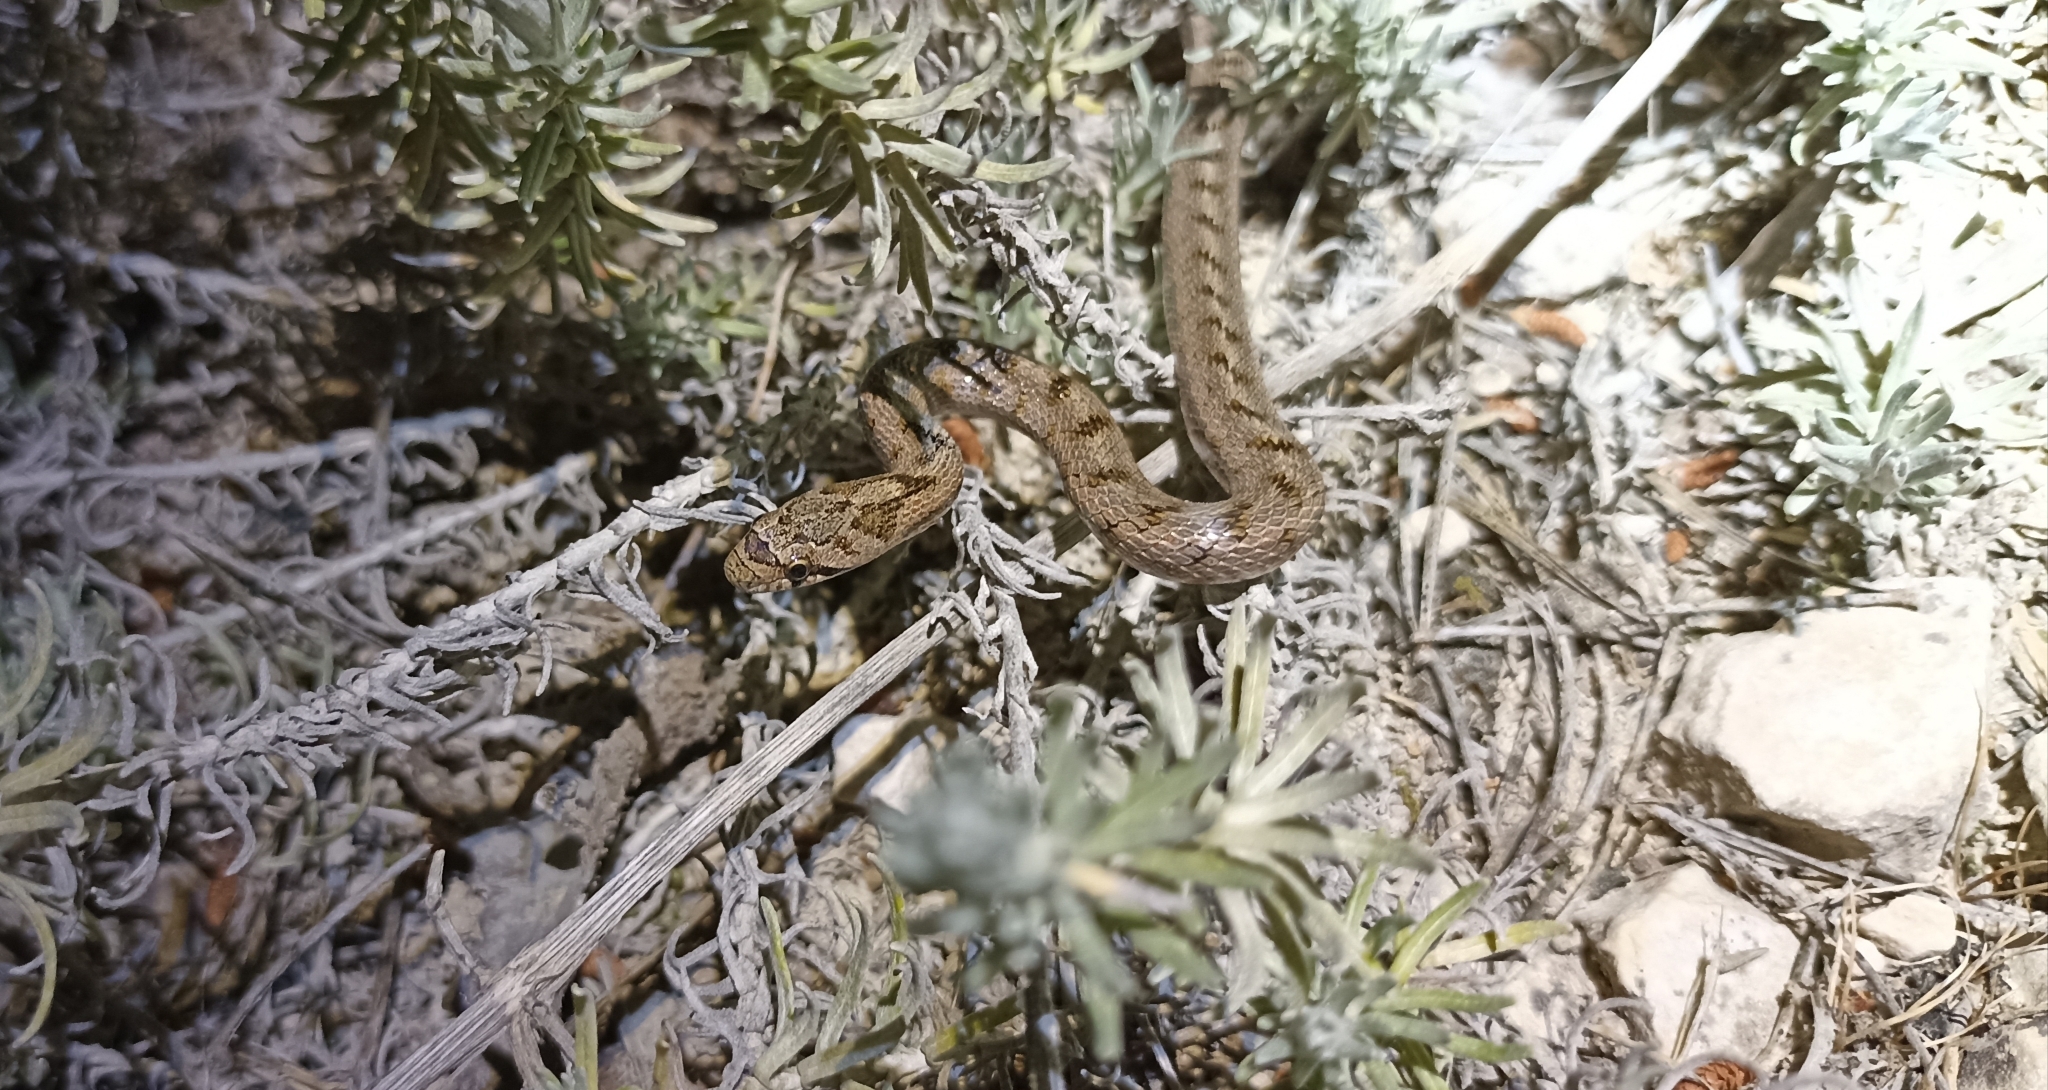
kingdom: Animalia
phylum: Chordata
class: Squamata
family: Colubridae
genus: Coronella
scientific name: Coronella girondica
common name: Southern smooth snake
